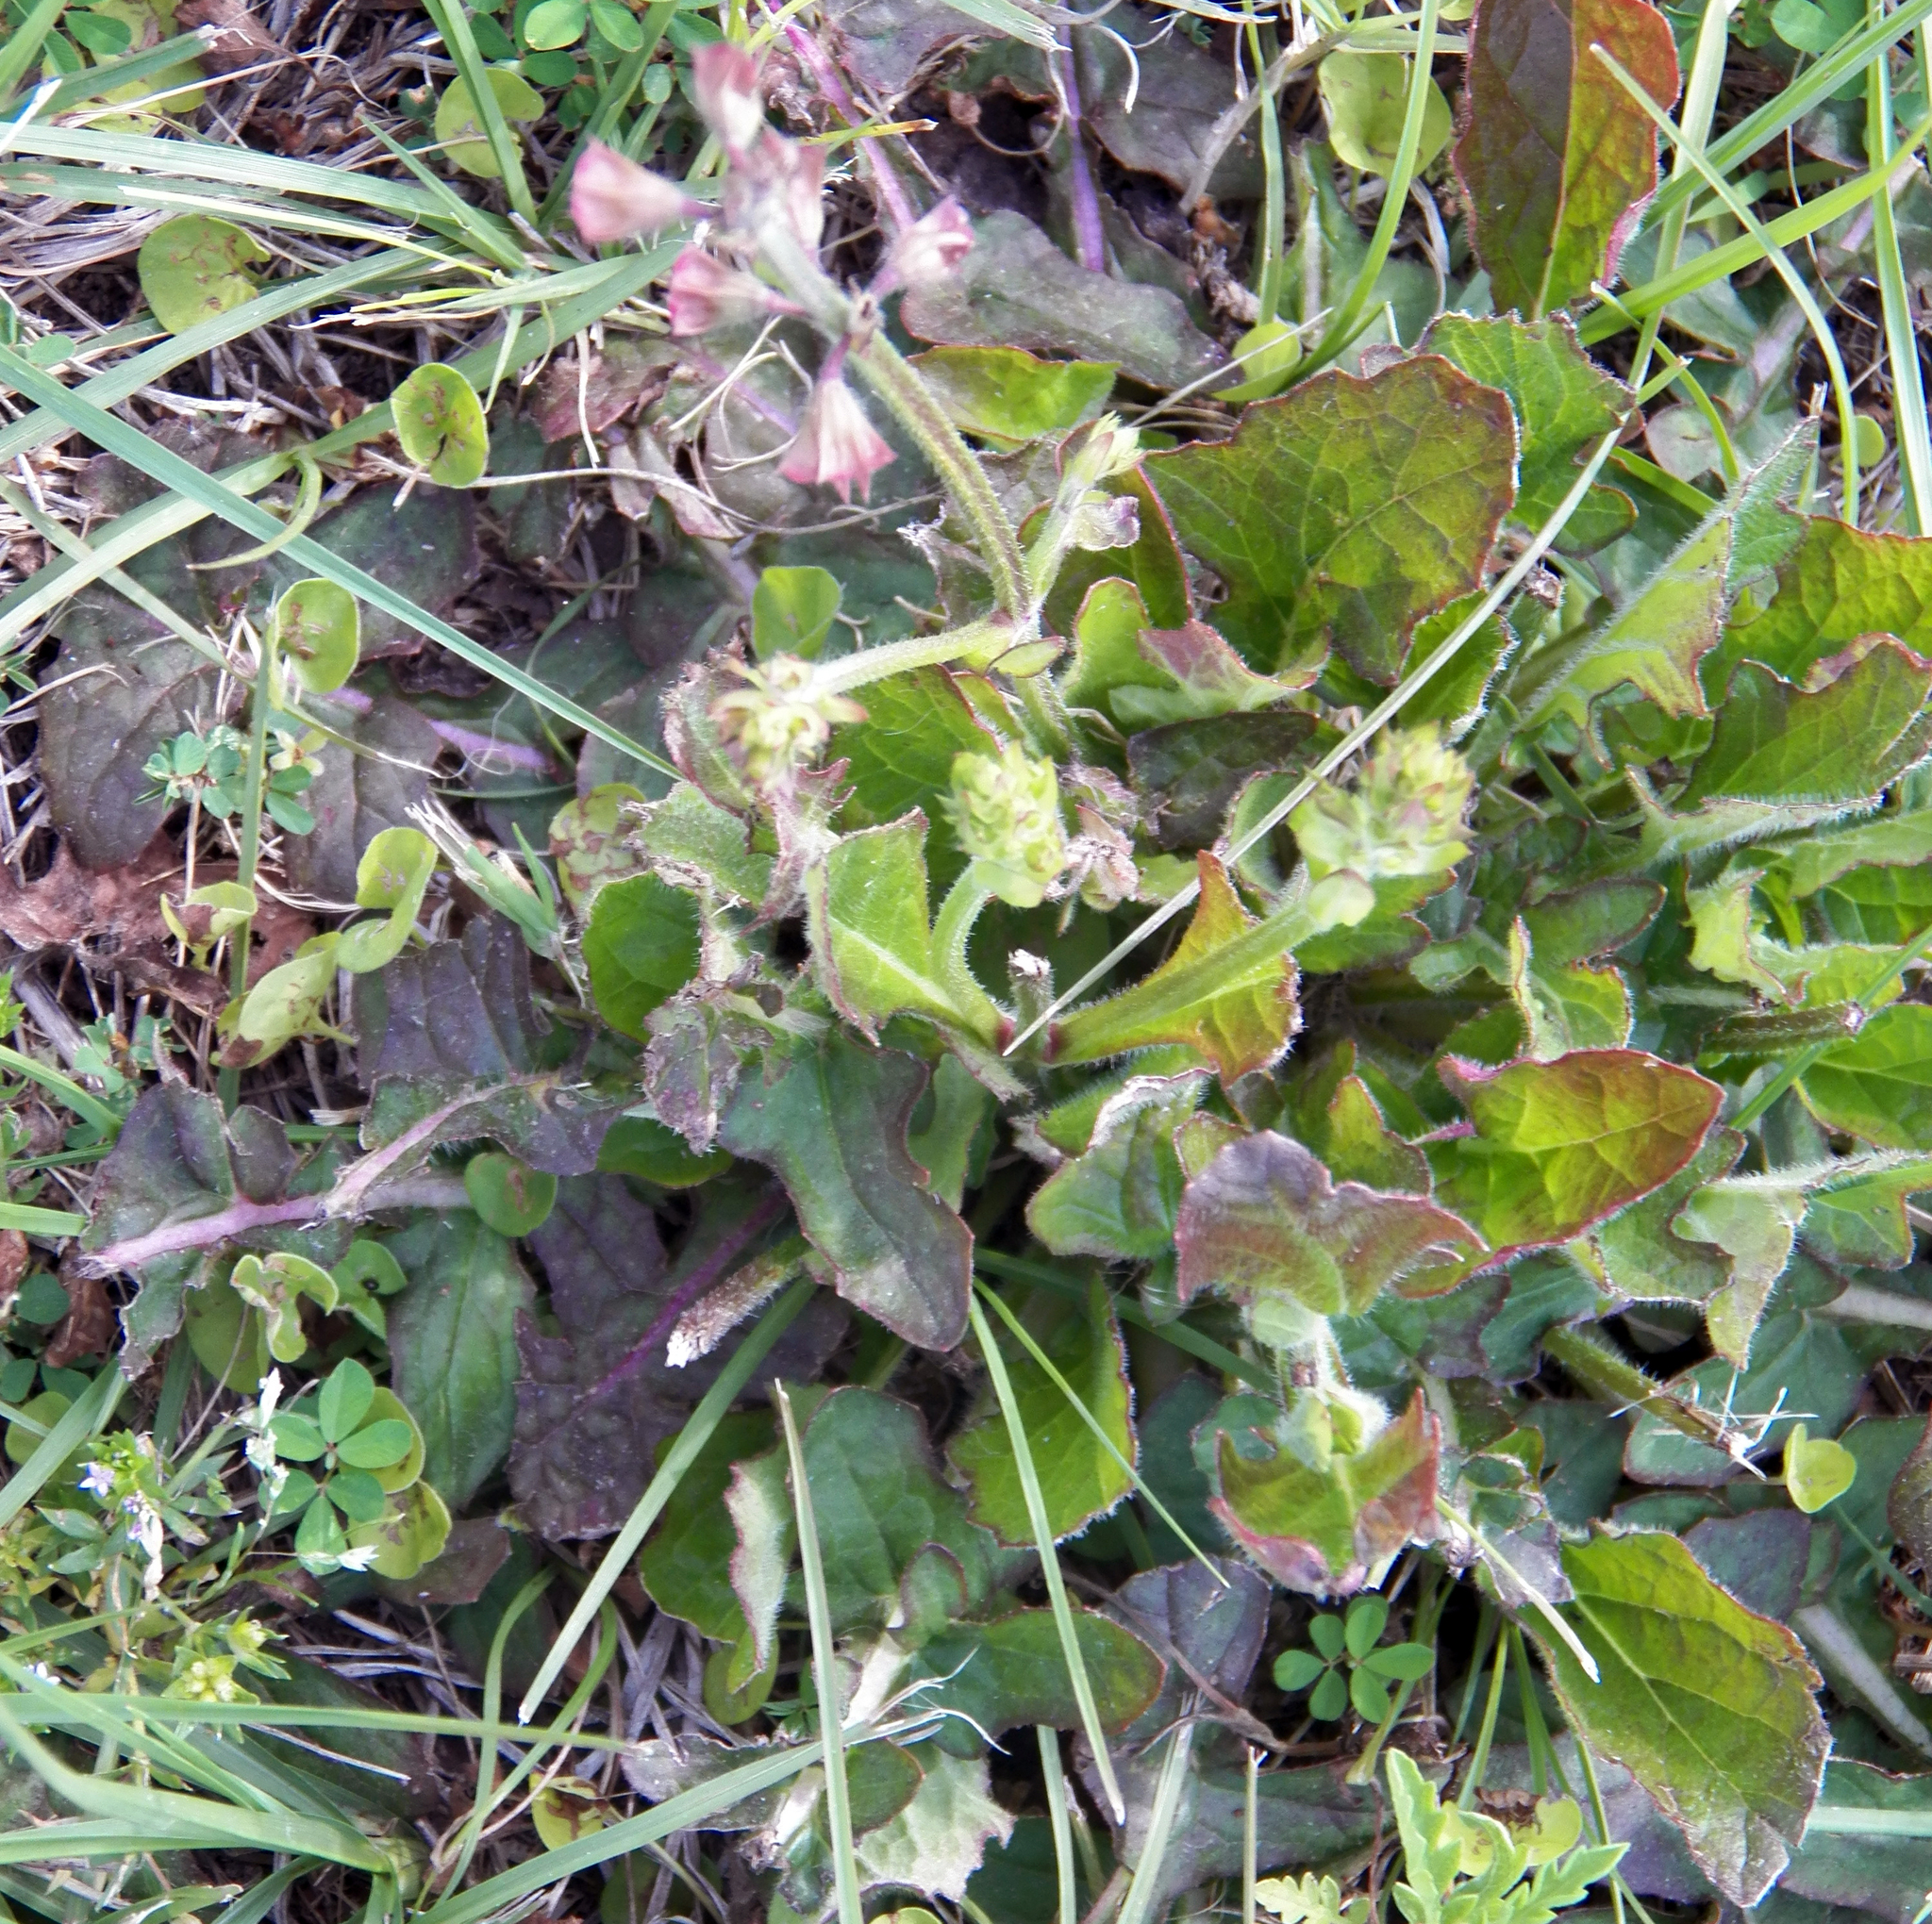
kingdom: Plantae
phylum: Tracheophyta
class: Magnoliopsida
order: Lamiales
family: Lamiaceae
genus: Salvia
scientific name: Salvia lyrata
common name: Cancerweed
